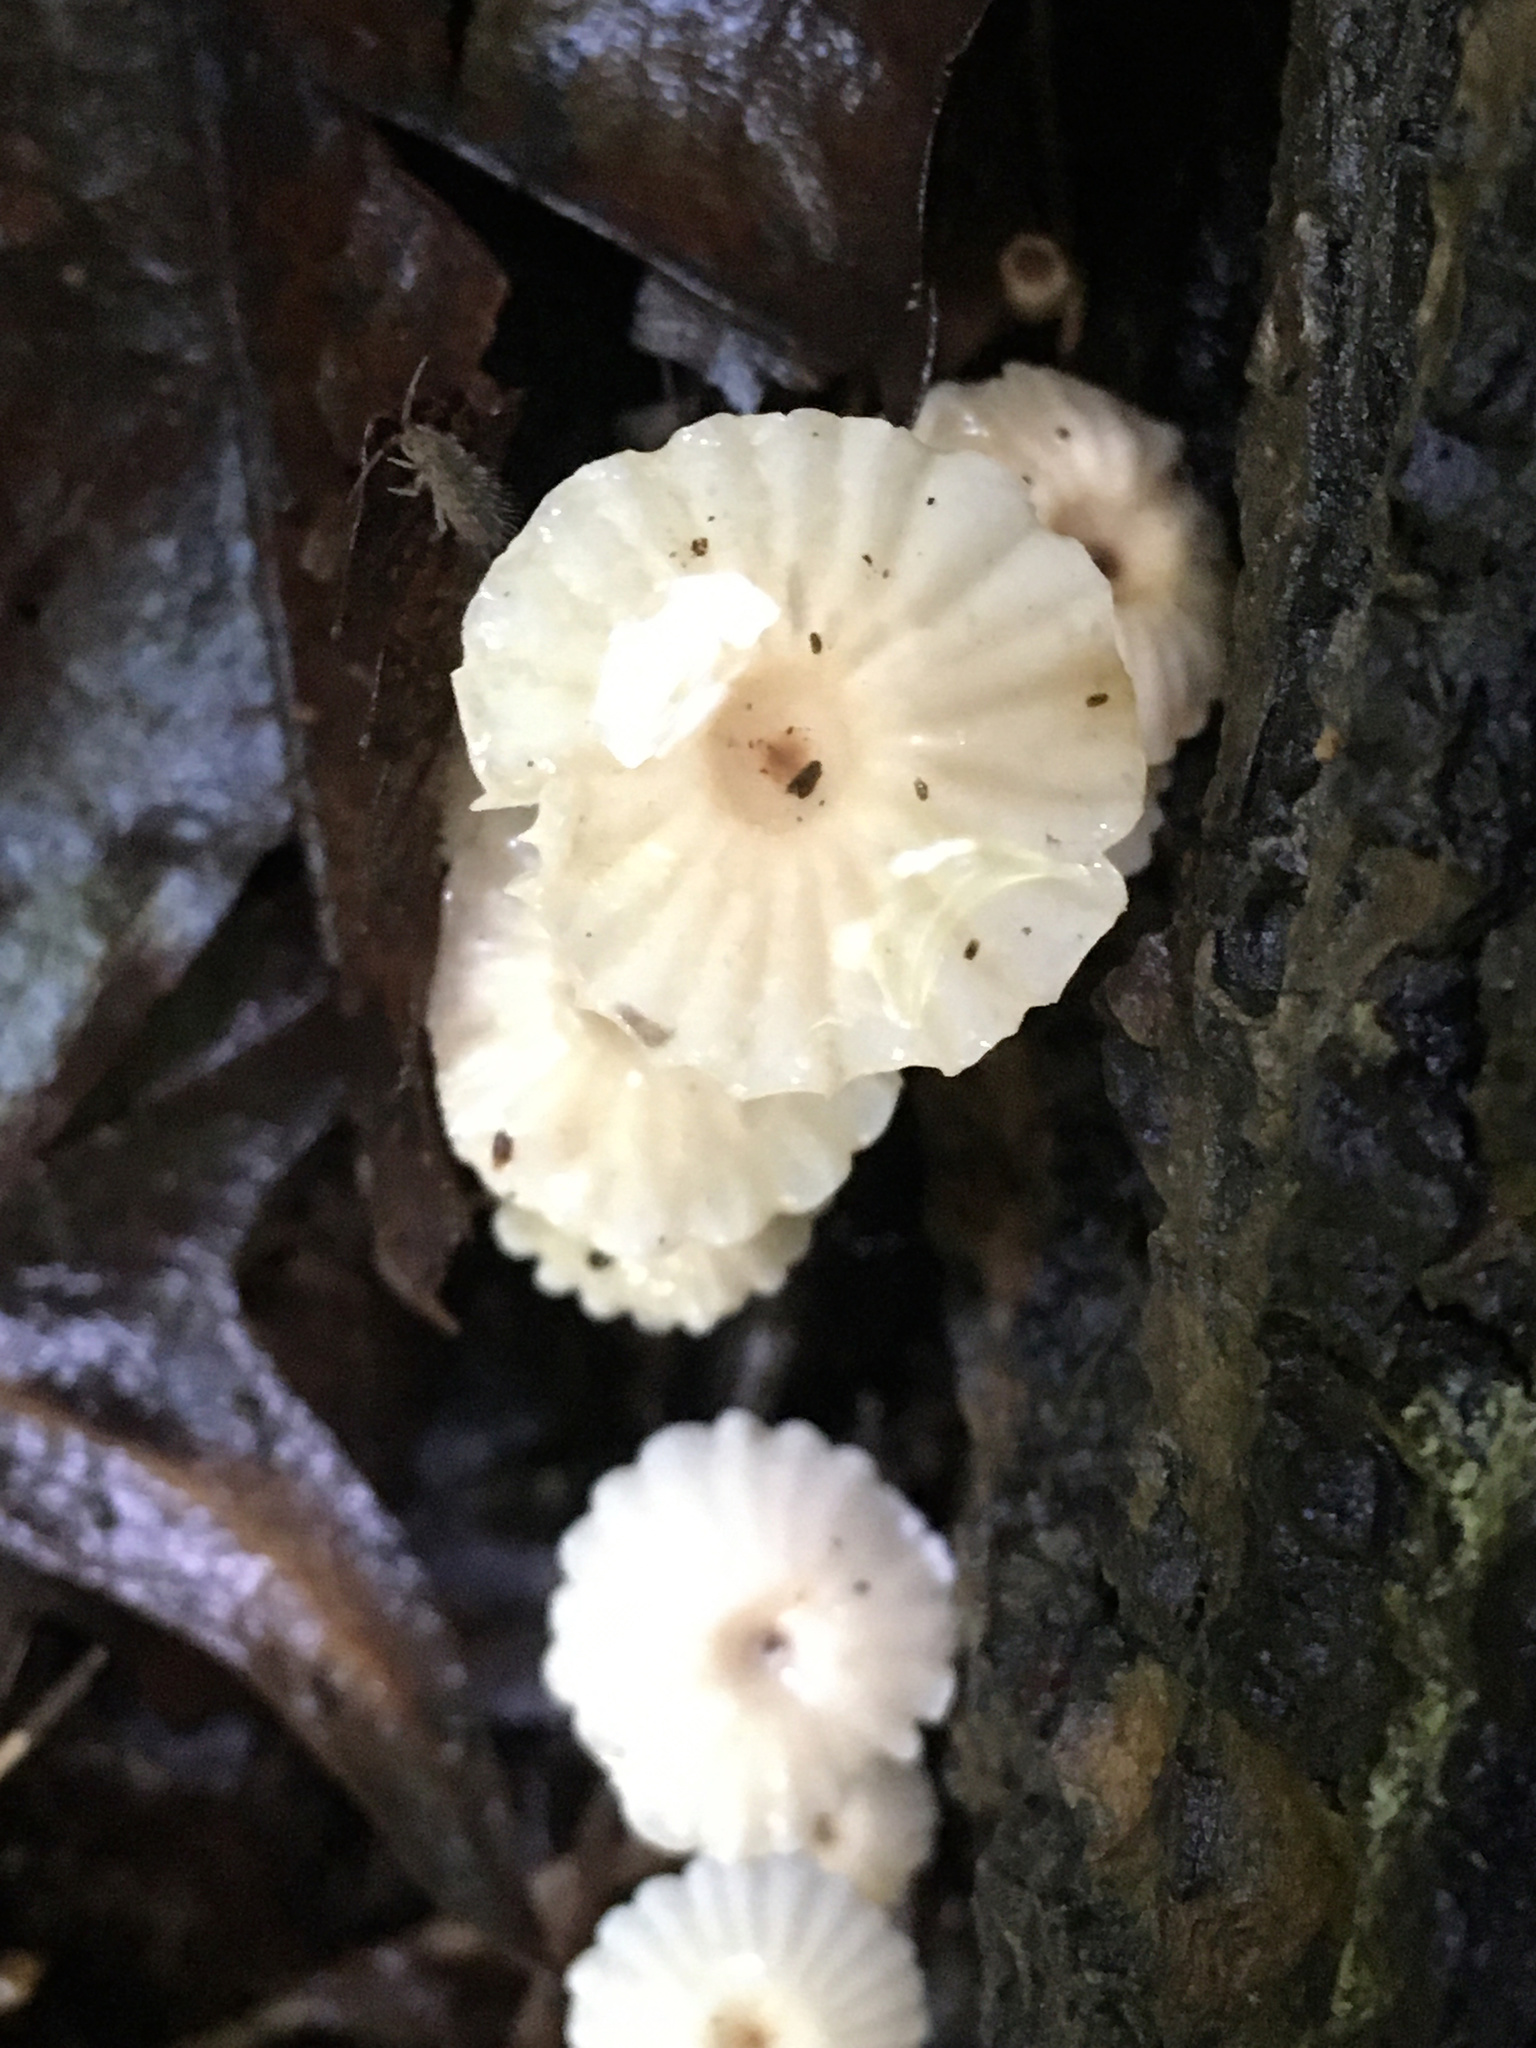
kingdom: Fungi
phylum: Basidiomycota
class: Agaricomycetes
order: Agaricales
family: Marasmiaceae
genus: Marasmius
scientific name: Marasmius rotula
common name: Collared parachute
